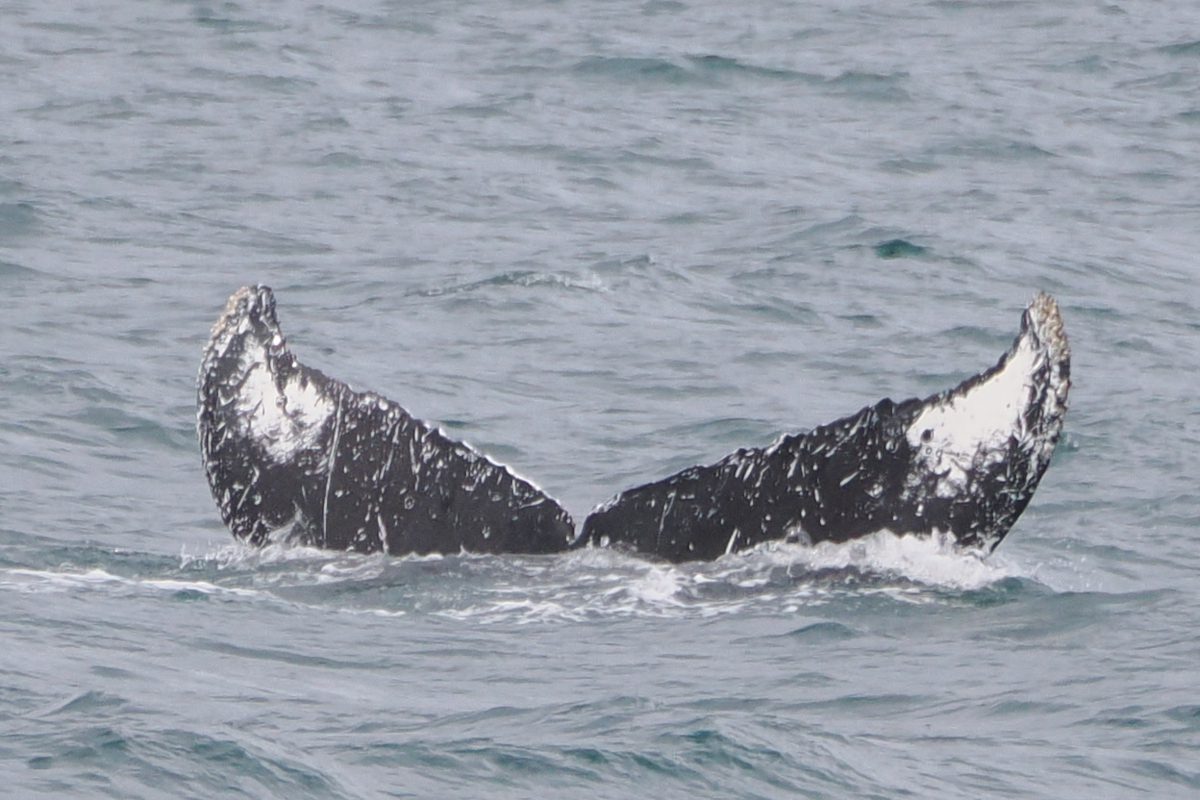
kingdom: Animalia
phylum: Chordata
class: Mammalia
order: Cetacea
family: Balaenopteridae
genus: Megaptera
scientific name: Megaptera novaeangliae
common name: Humpback whale
